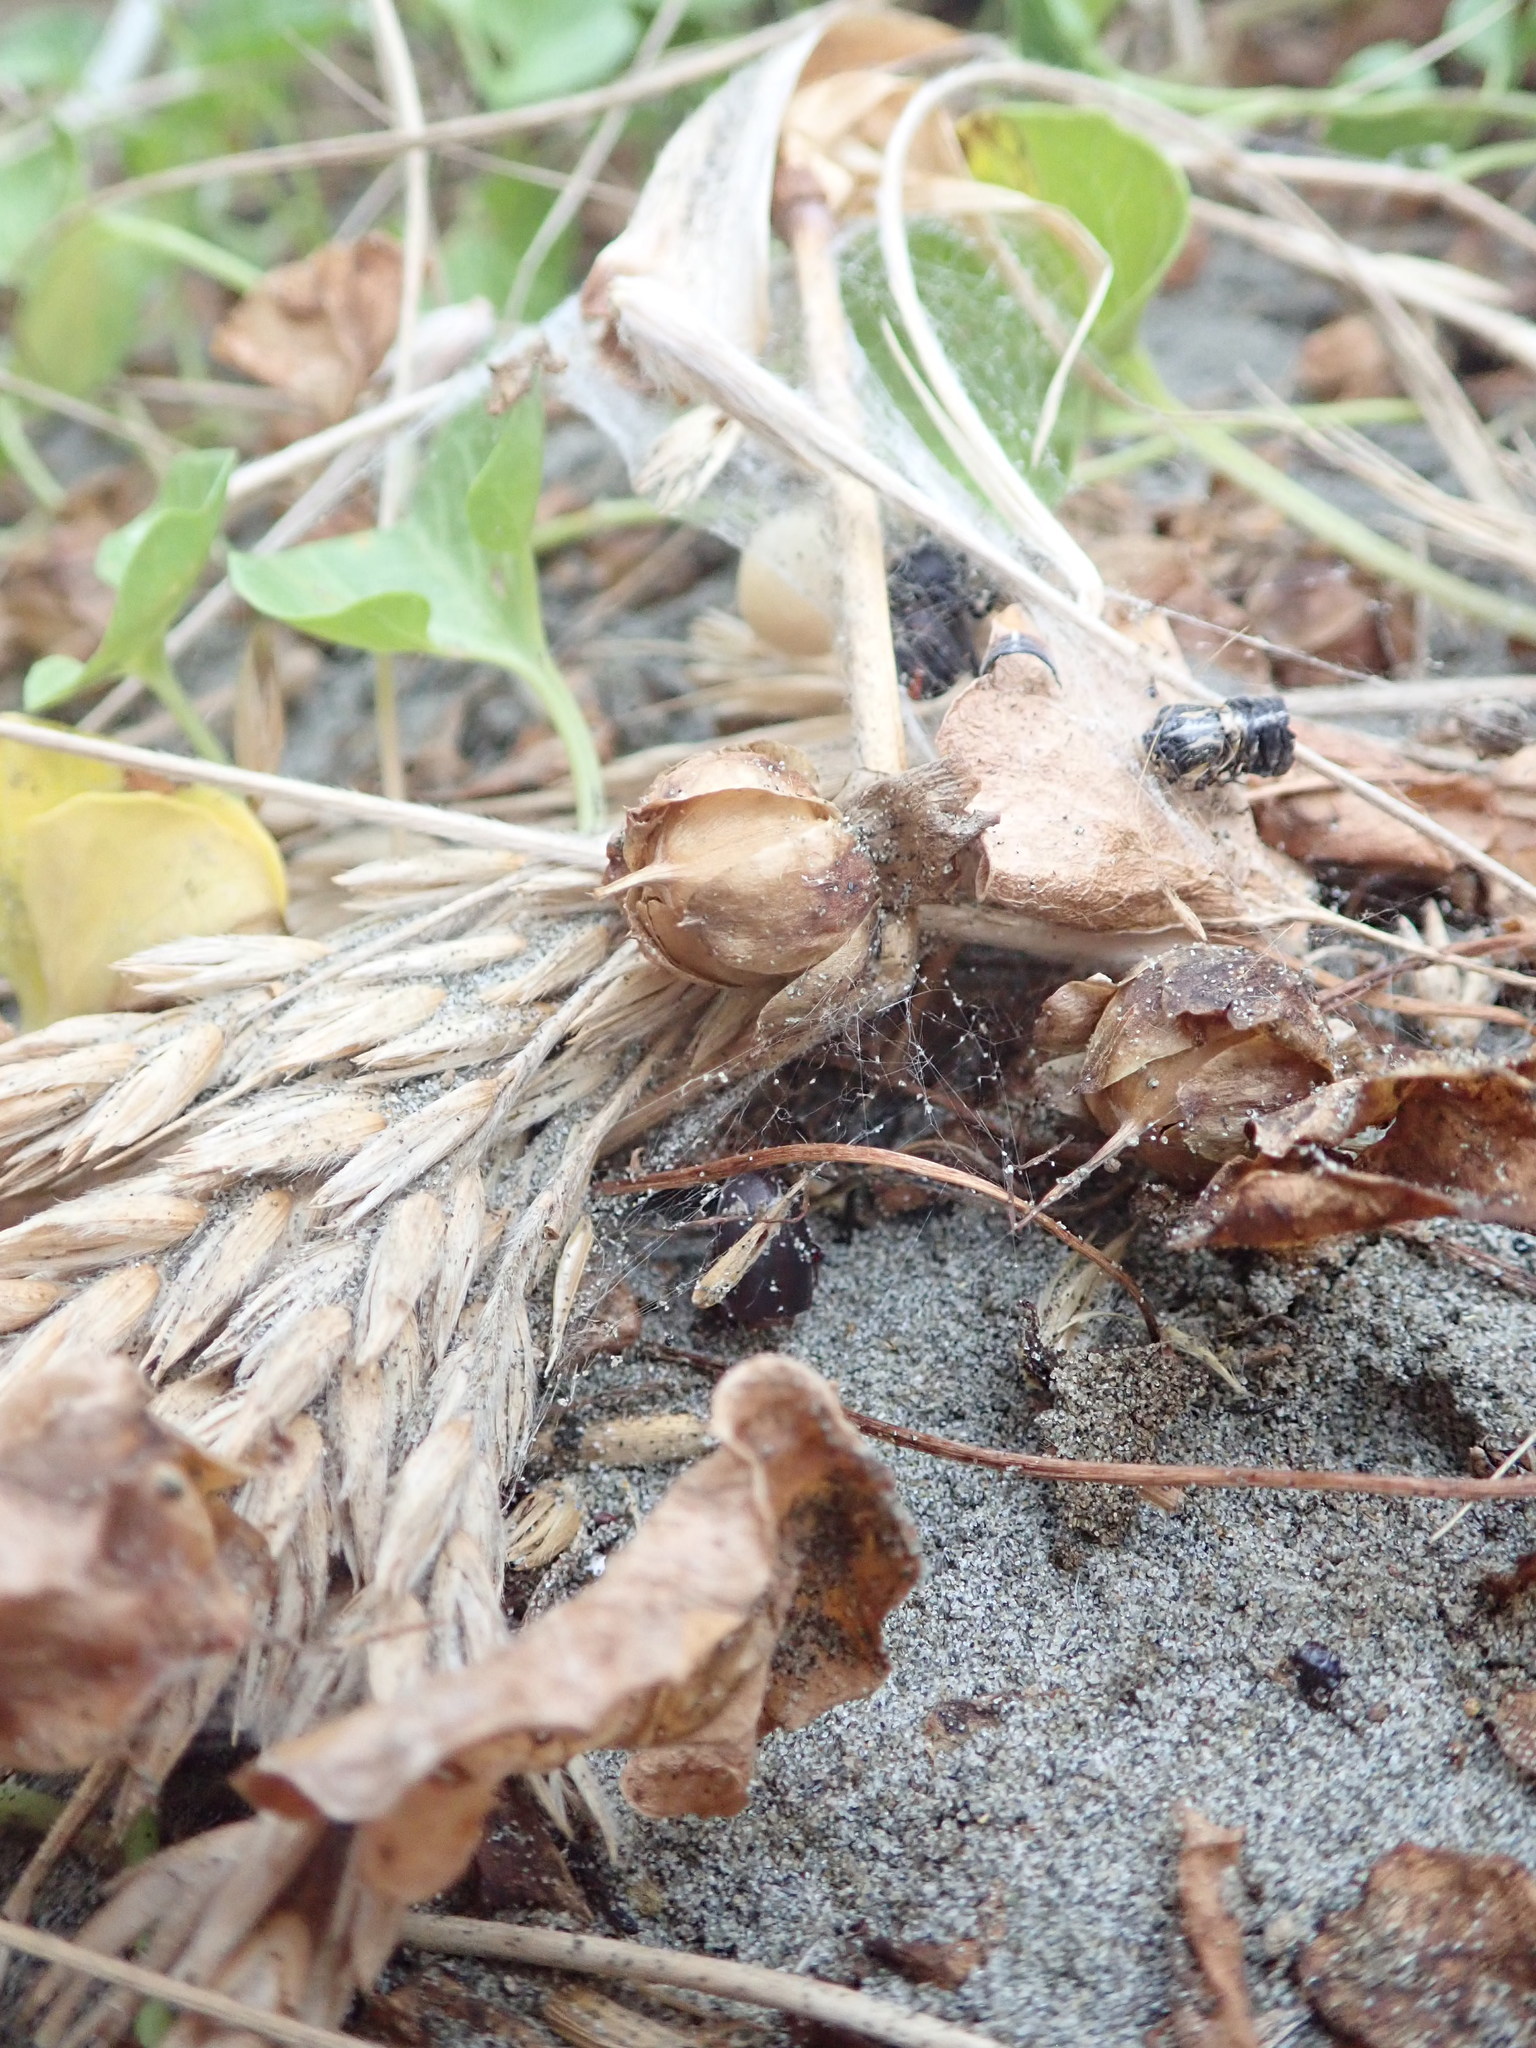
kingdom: Animalia
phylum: Arthropoda
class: Arachnida
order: Araneae
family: Theridiidae
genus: Latrodectus
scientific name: Latrodectus katipo
